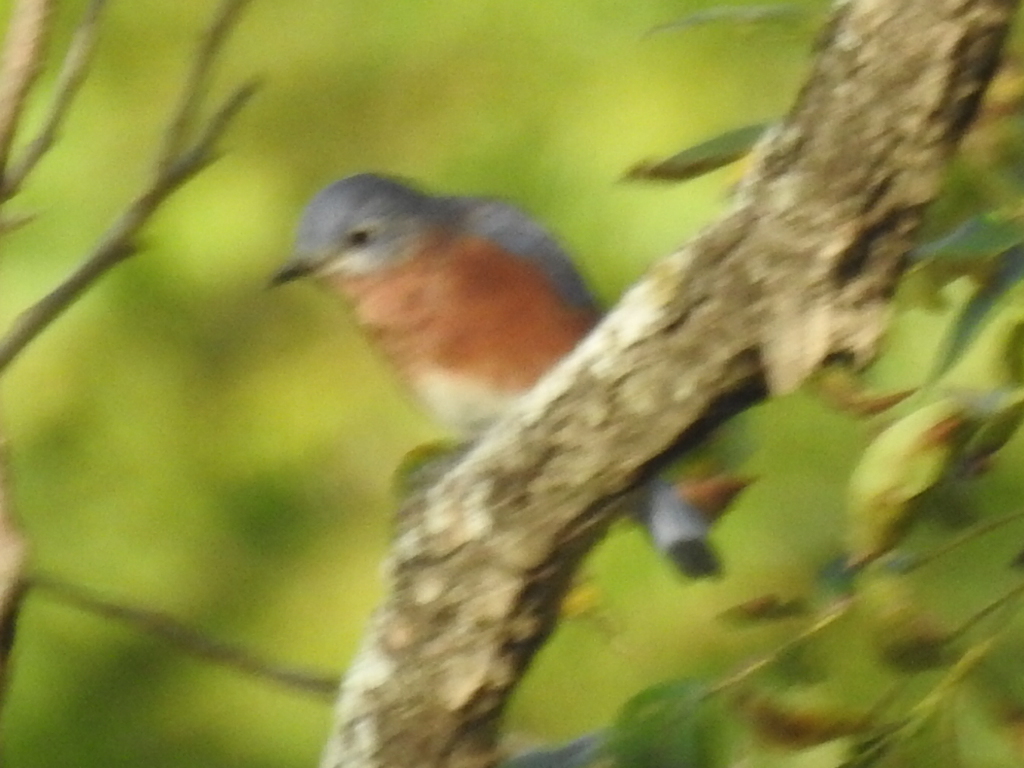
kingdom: Animalia
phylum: Chordata
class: Aves
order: Passeriformes
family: Turdidae
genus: Sialia
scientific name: Sialia sialis
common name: Eastern bluebird
